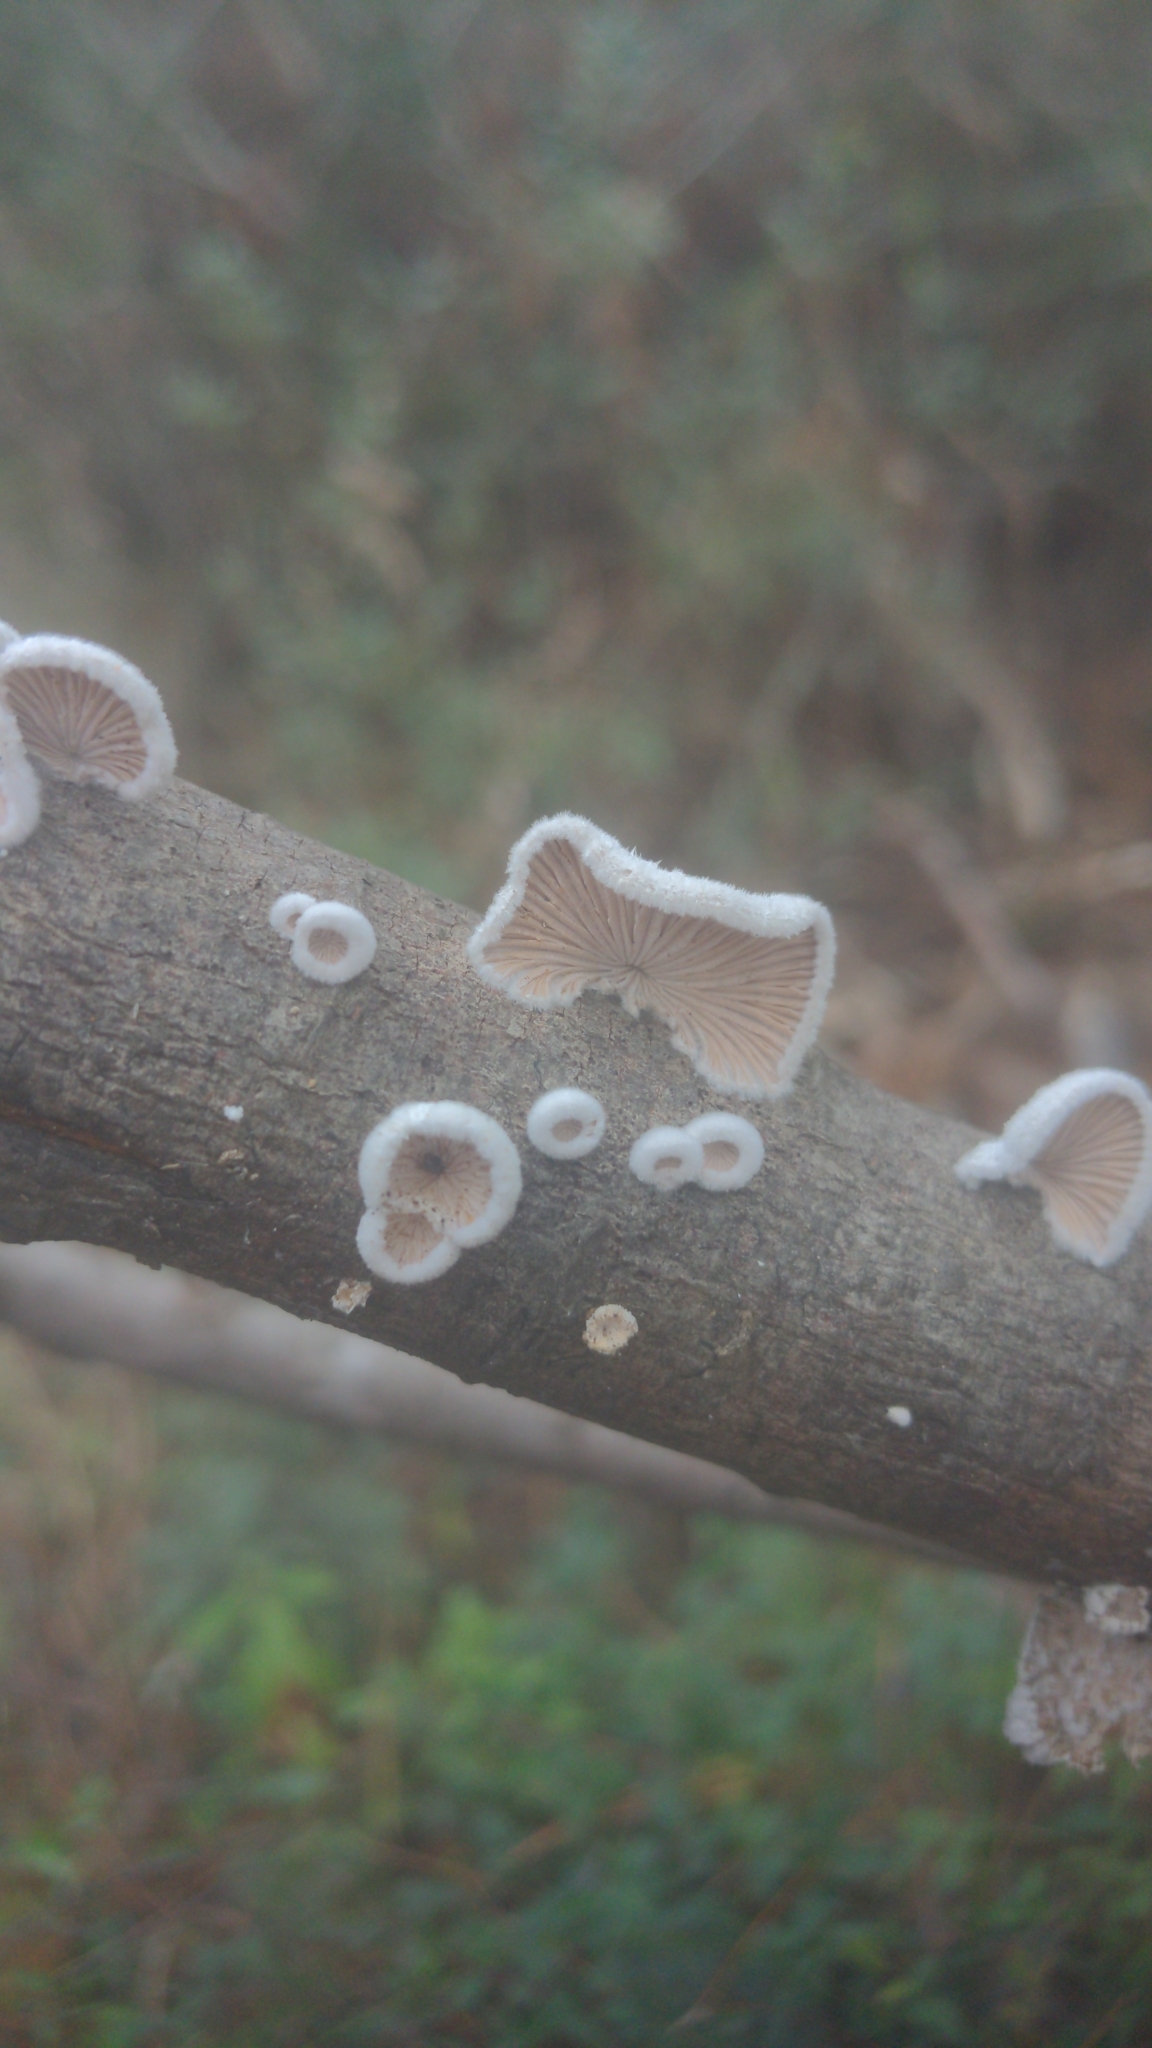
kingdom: Fungi
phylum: Basidiomycota
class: Agaricomycetes
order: Agaricales
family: Schizophyllaceae
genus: Schizophyllum
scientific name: Schizophyllum commune
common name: Common porecrust
